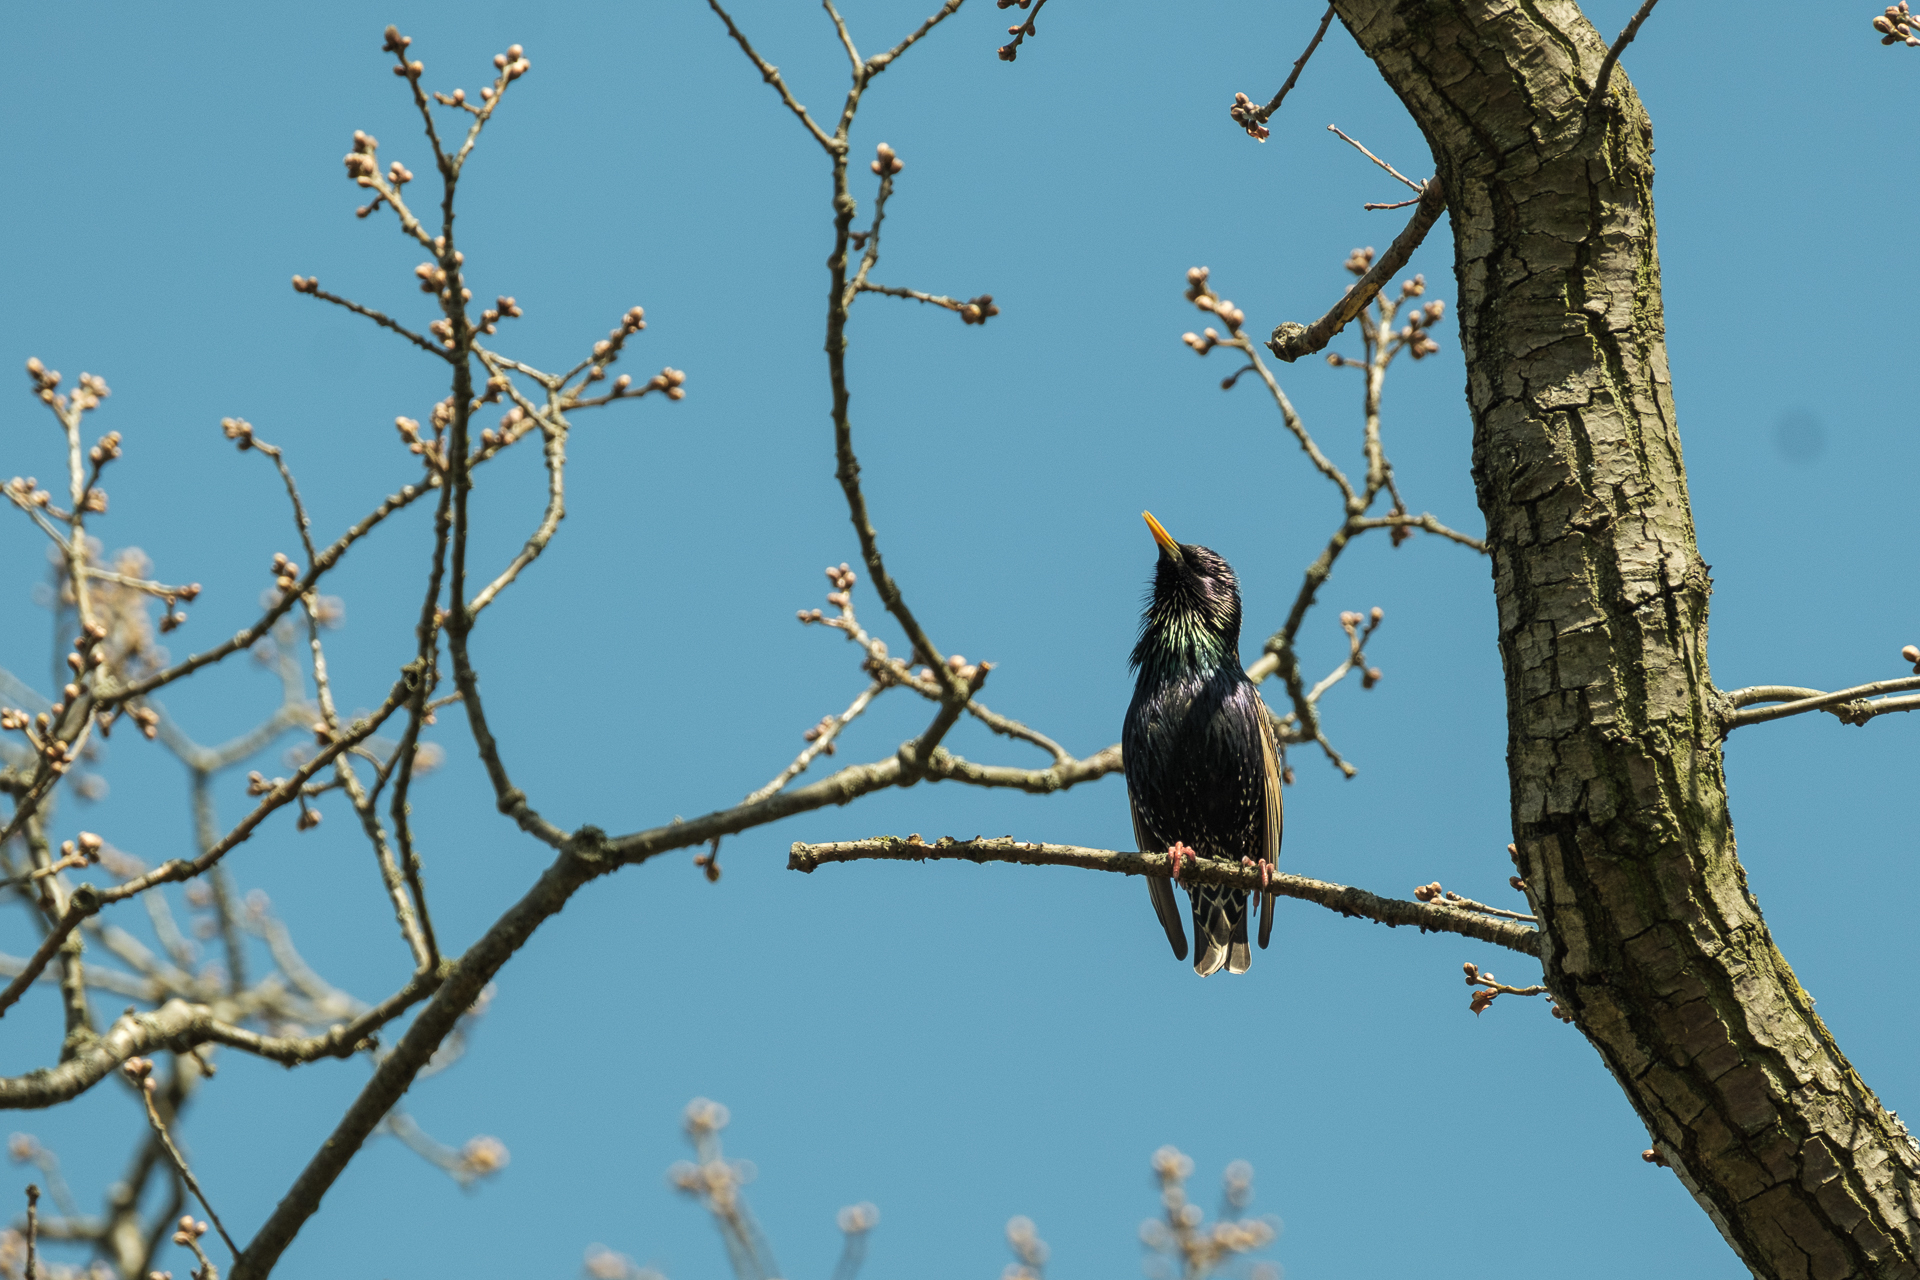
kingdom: Animalia
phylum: Chordata
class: Aves
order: Passeriformes
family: Sturnidae
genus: Sturnus
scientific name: Sturnus vulgaris
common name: Common starling
